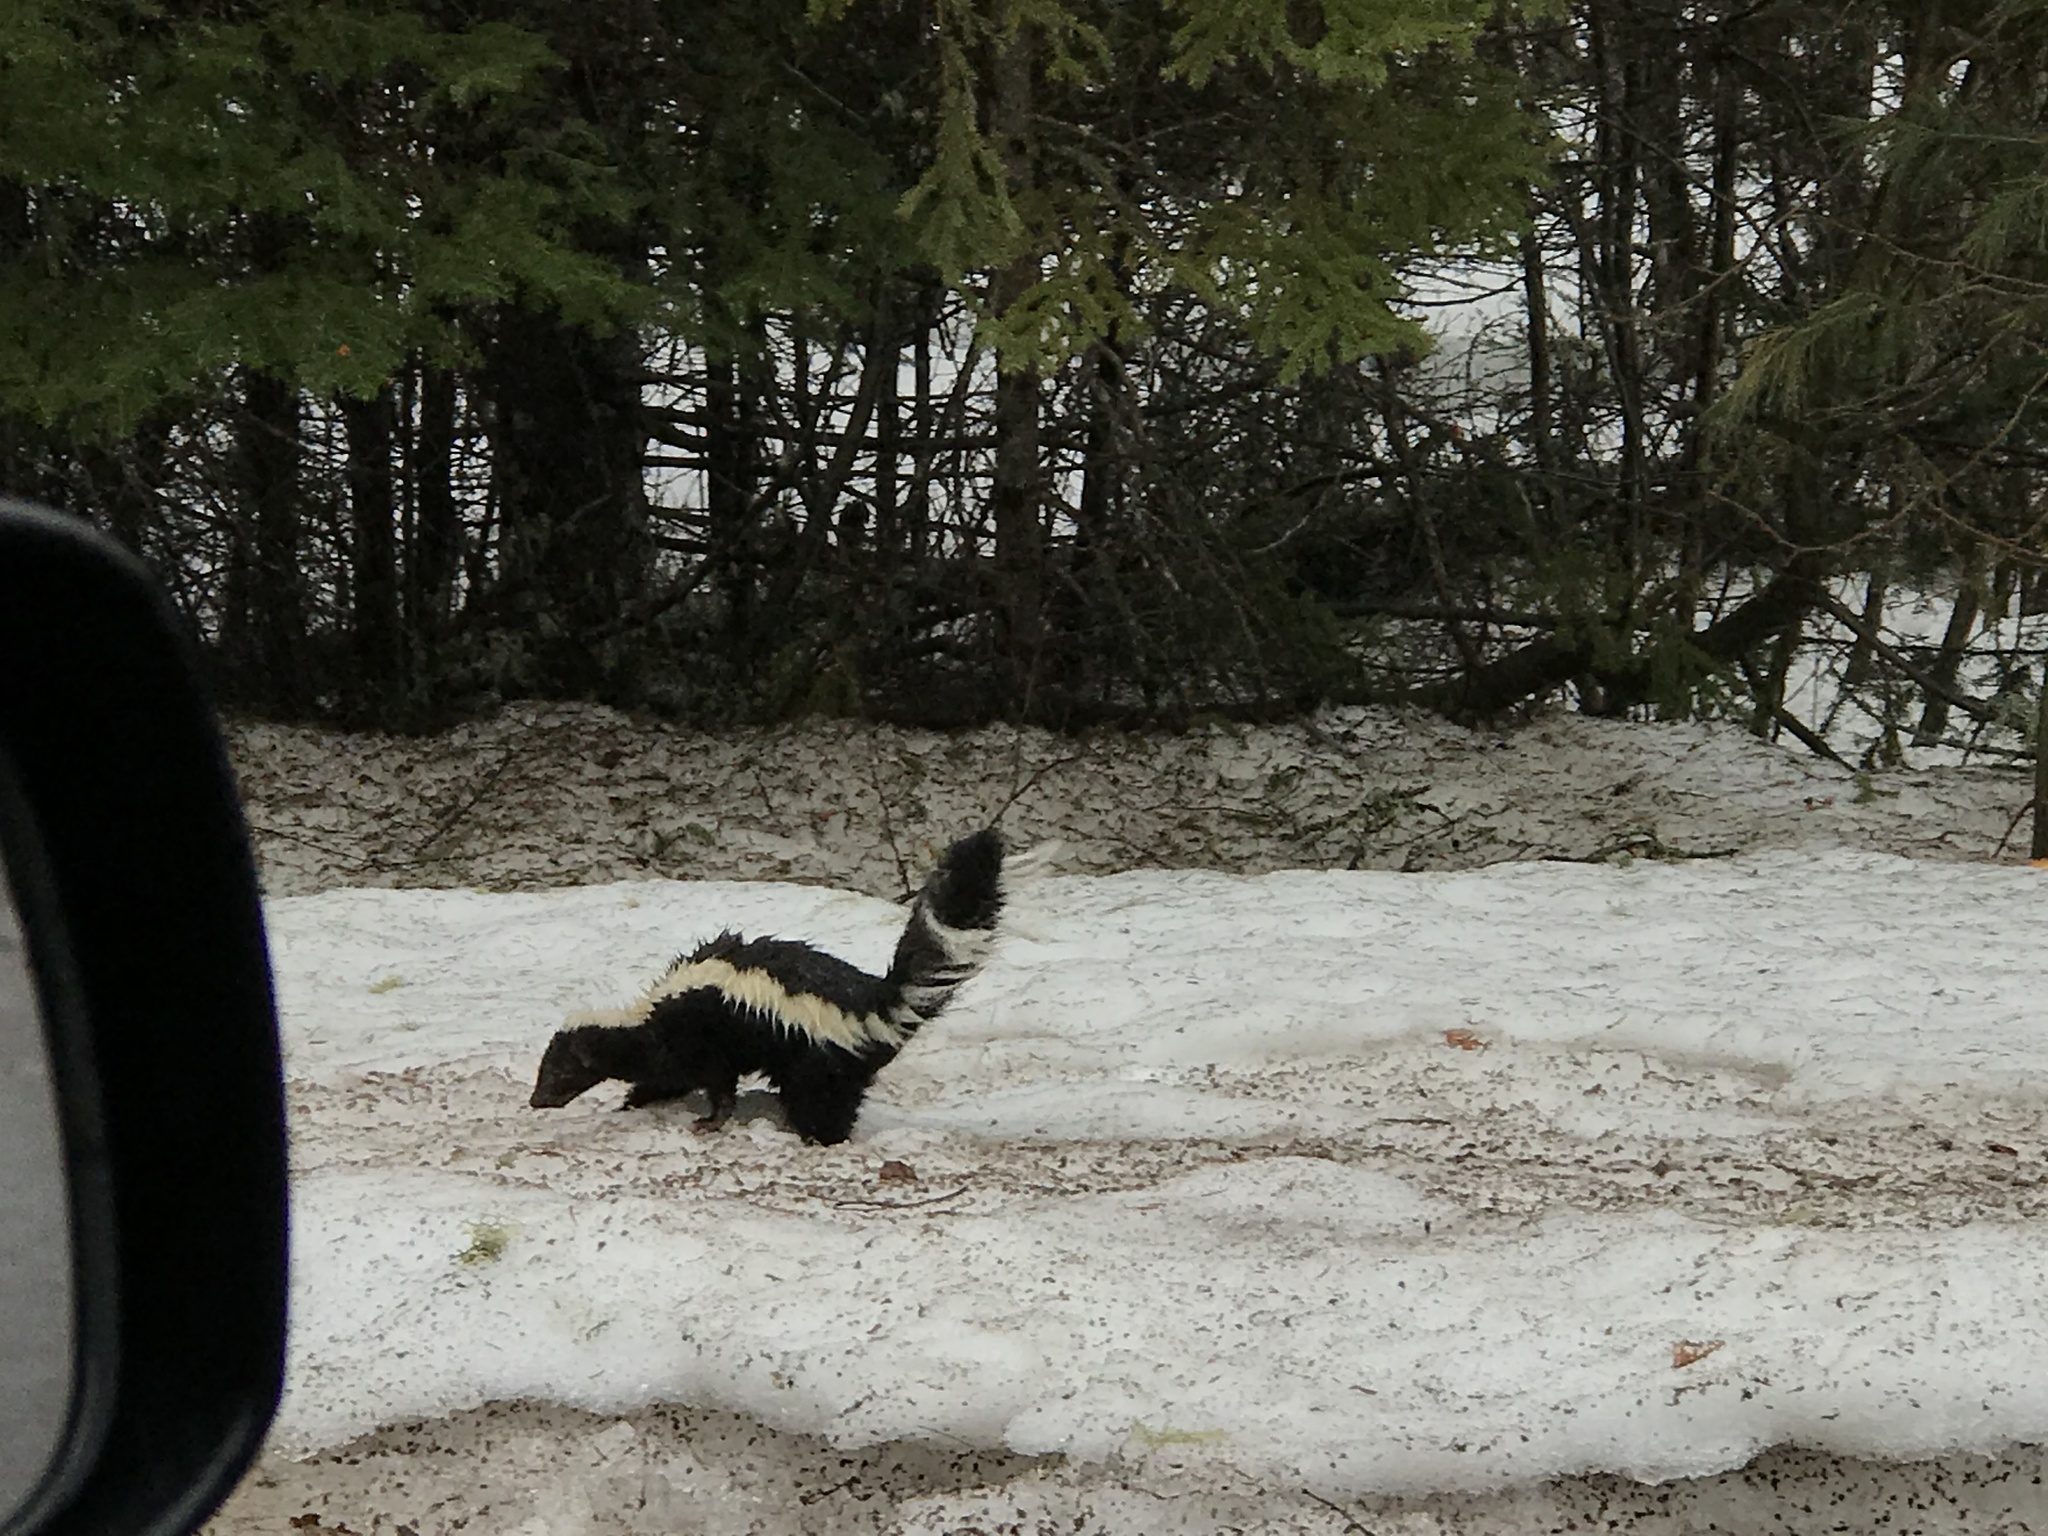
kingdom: Animalia
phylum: Chordata
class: Mammalia
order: Carnivora
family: Mephitidae
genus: Mephitis
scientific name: Mephitis mephitis
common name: Striped skunk
